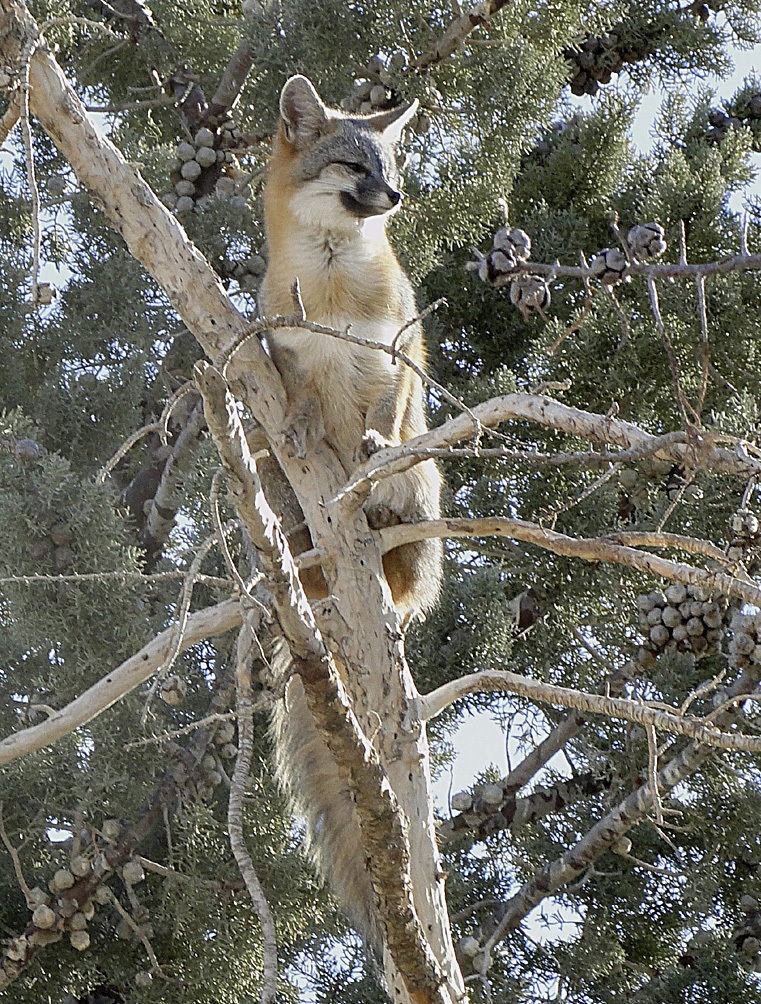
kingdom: Animalia
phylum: Chordata
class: Mammalia
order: Carnivora
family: Canidae
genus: Urocyon
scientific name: Urocyon cinereoargenteus
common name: Gray fox
